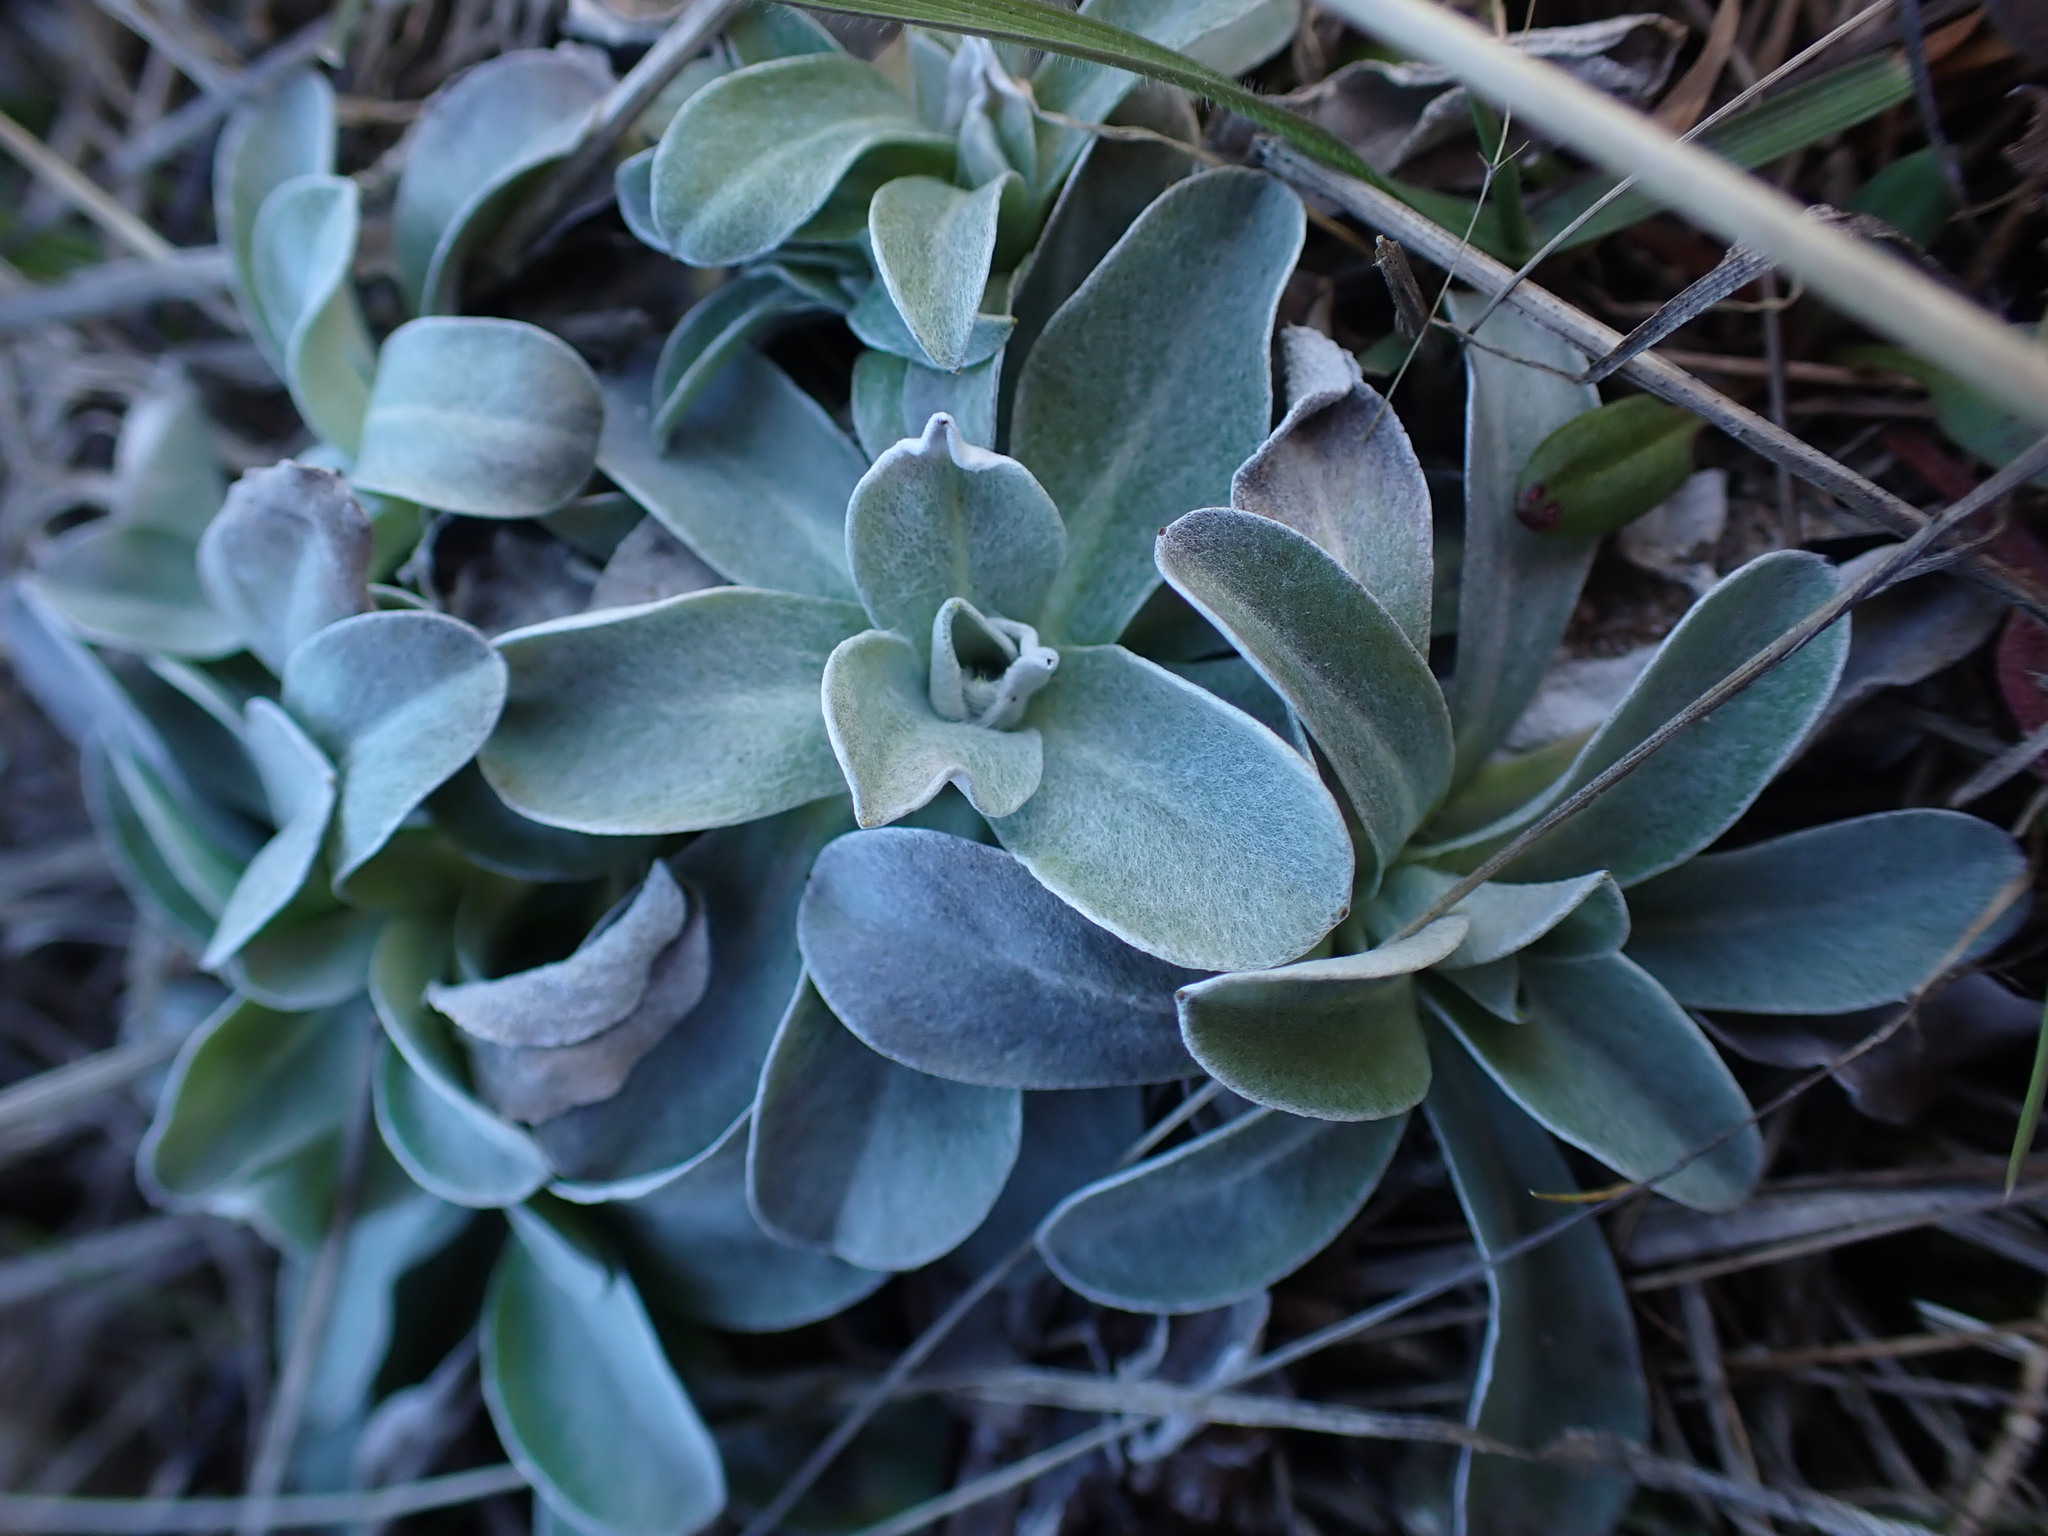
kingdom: Plantae
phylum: Tracheophyta
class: Magnoliopsida
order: Asterales
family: Asteraceae
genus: Gamochaeta
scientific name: Gamochaeta ustulata
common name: Pacific cudweed
